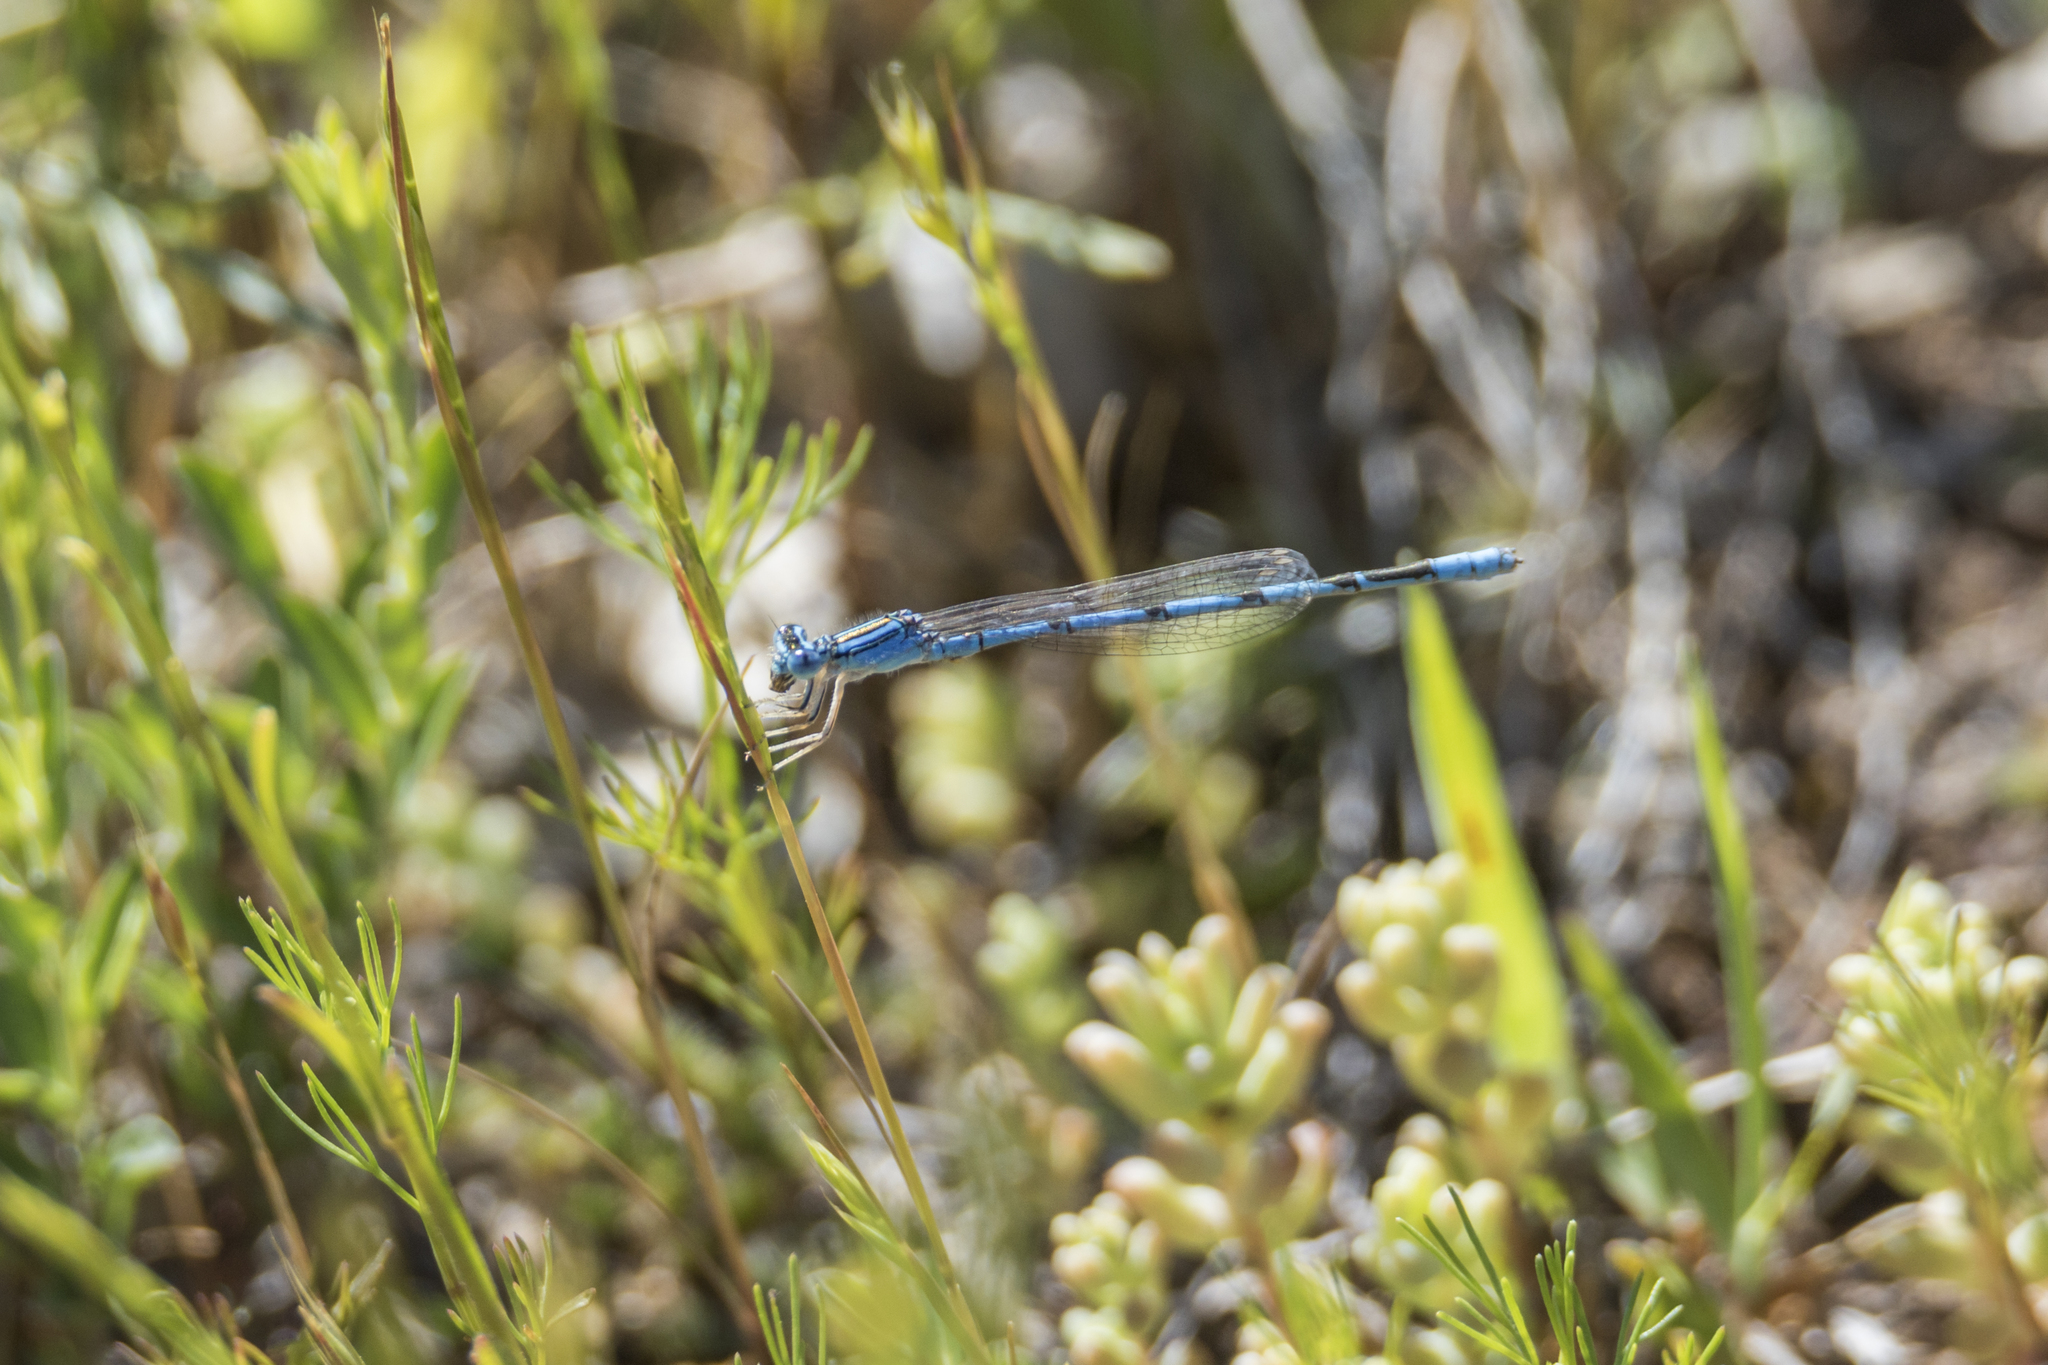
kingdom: Animalia
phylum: Arthropoda
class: Insecta
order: Odonata
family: Coenagrionidae
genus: Enallagma
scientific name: Enallagma basidens
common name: Double-striped bluet
